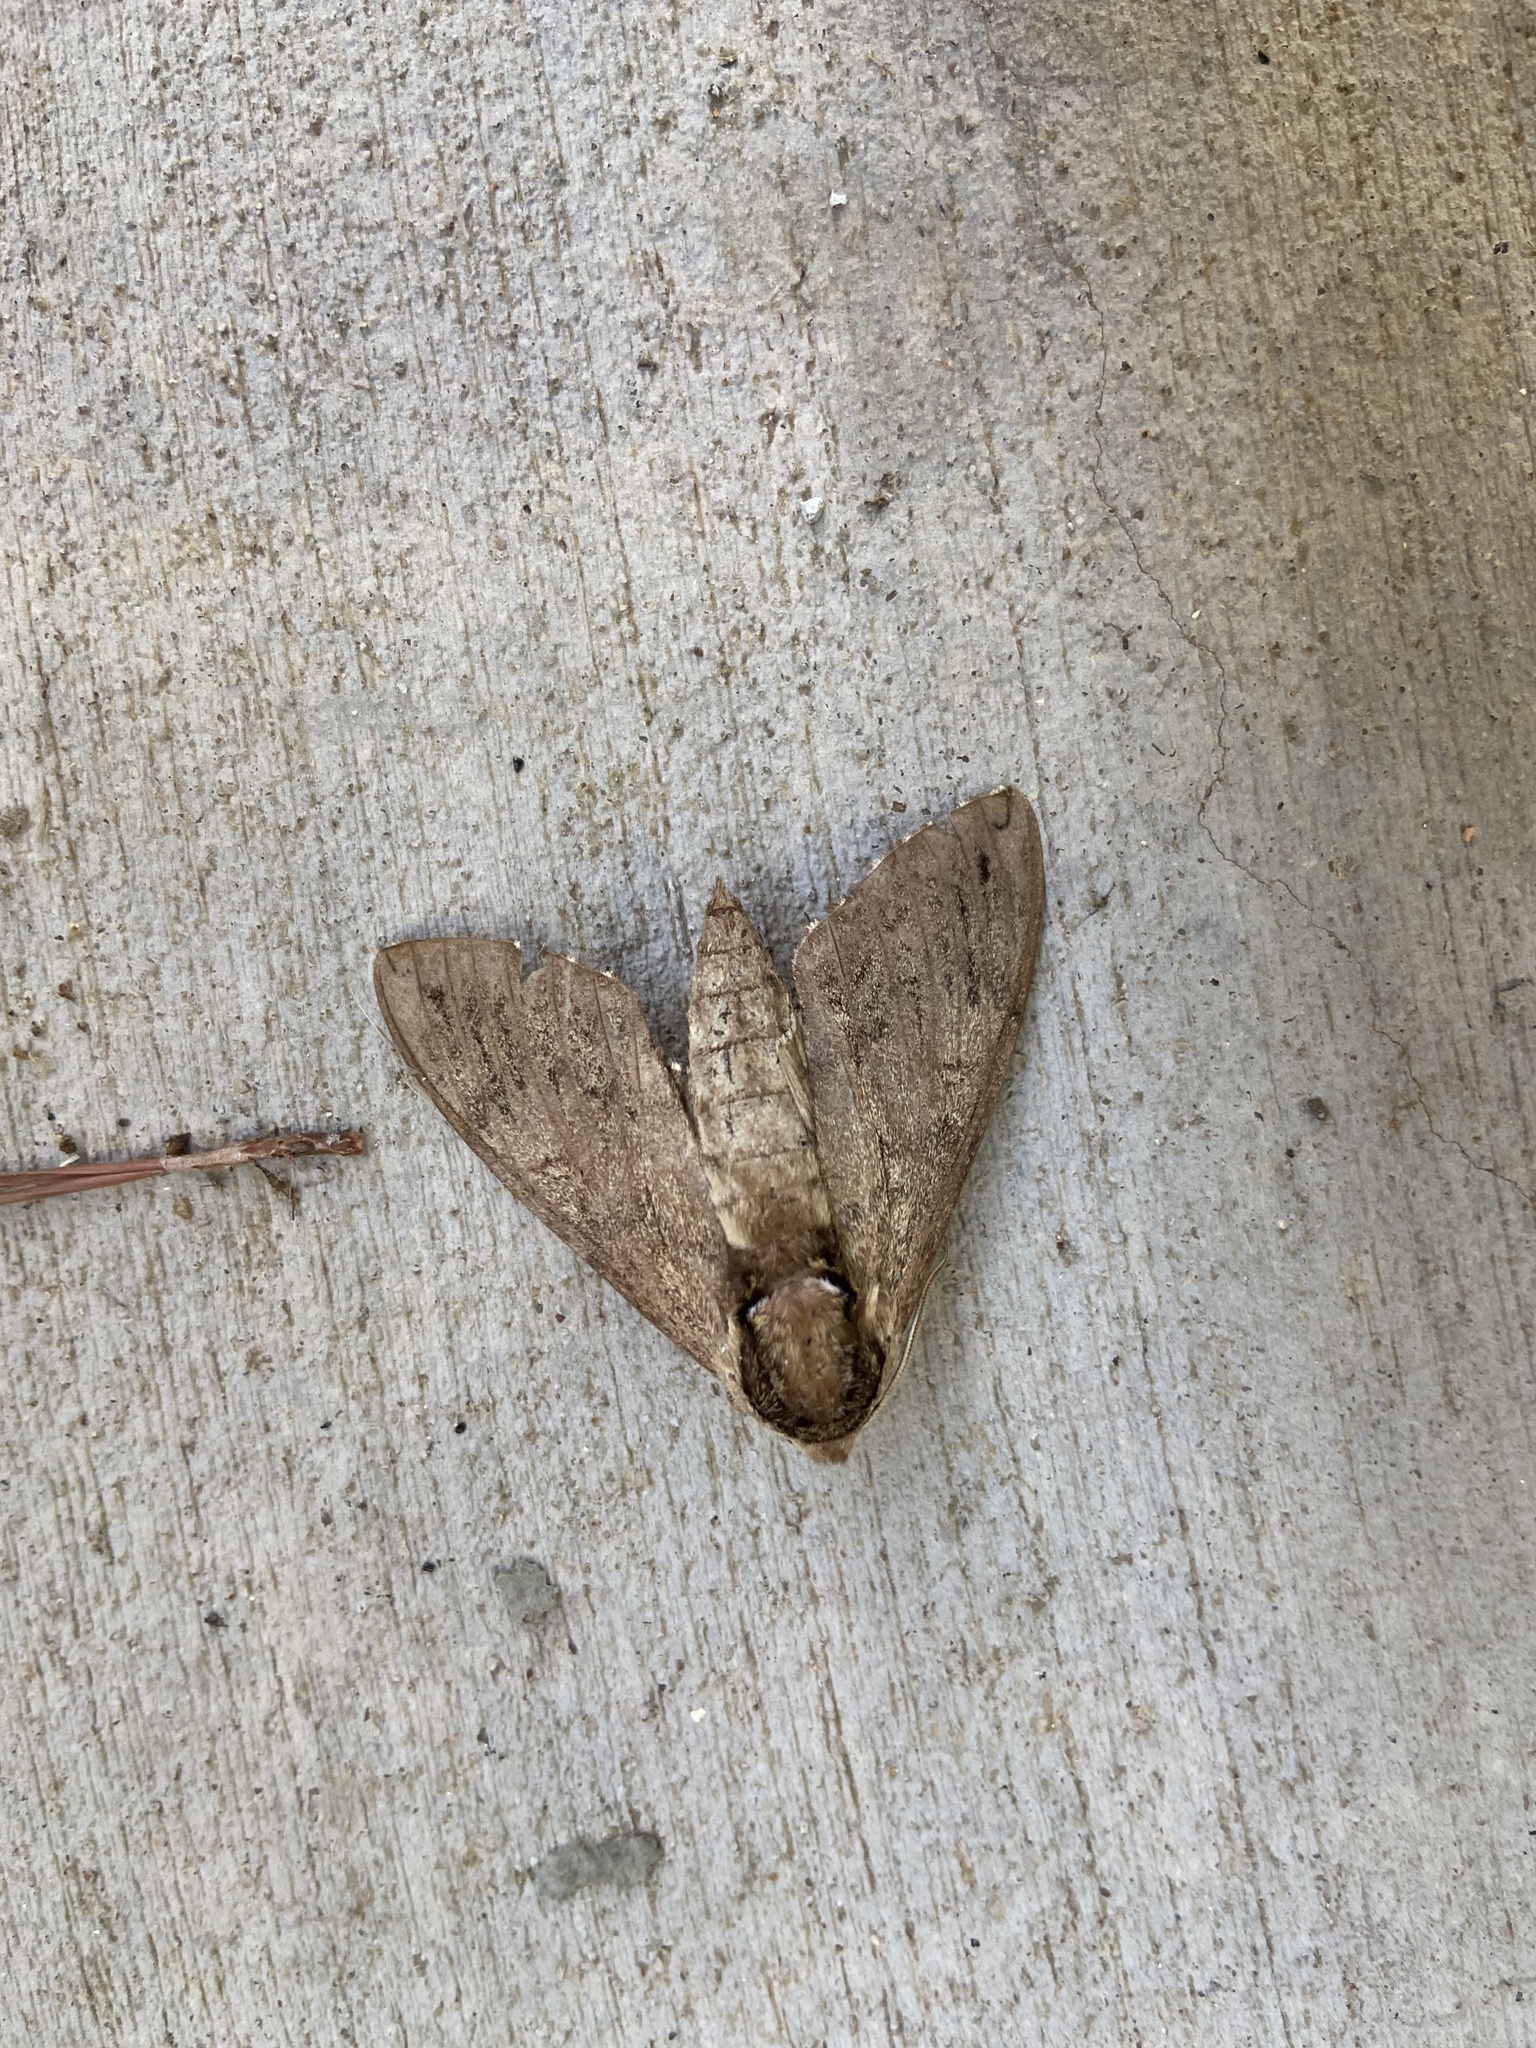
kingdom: Animalia
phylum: Arthropoda
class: Insecta
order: Lepidoptera
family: Sphingidae
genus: Ceratomia
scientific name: Ceratomia catalpae
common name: Catalpa hornworm
